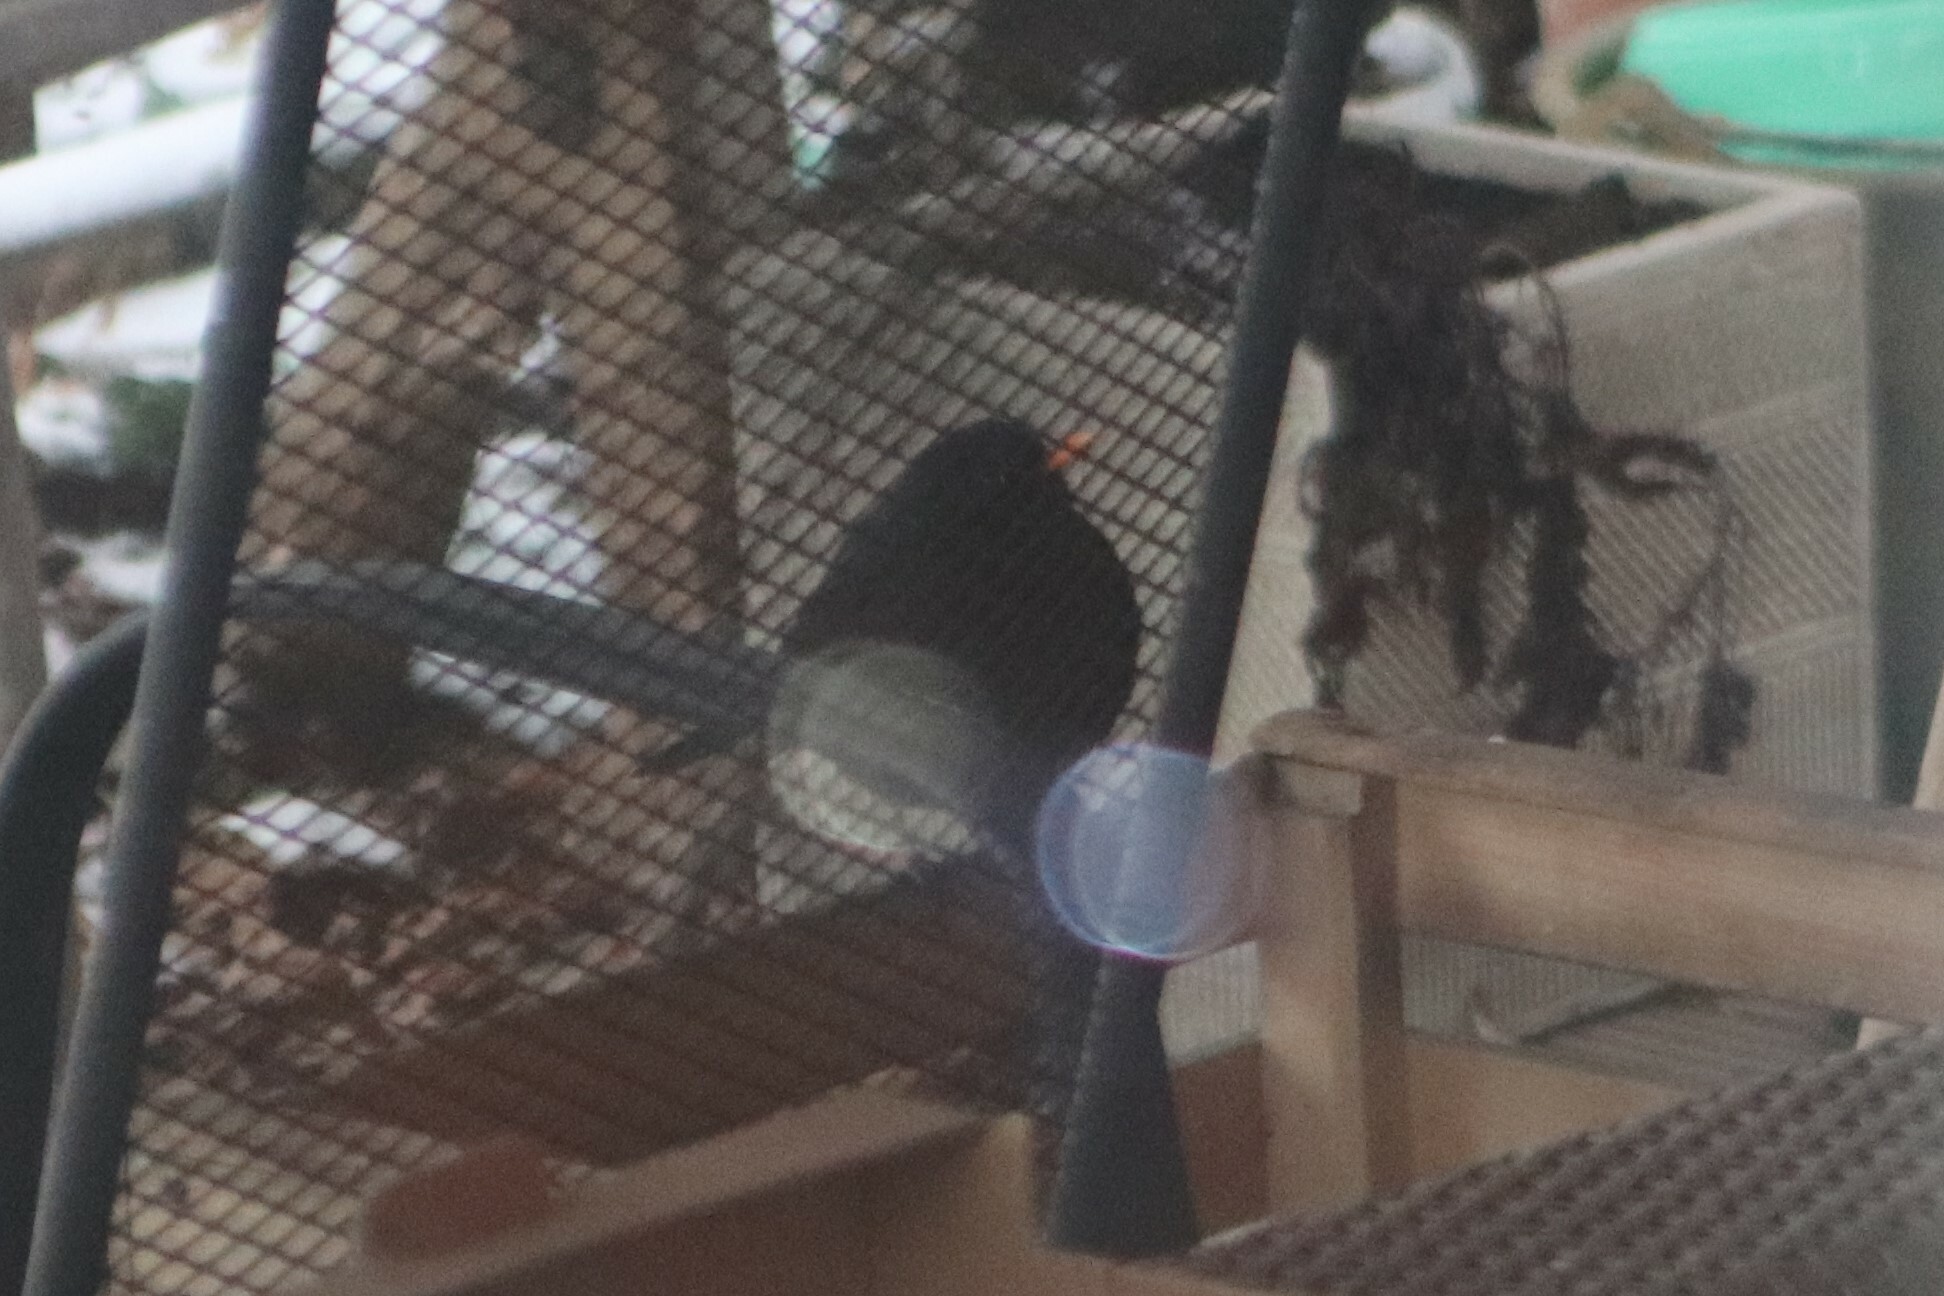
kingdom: Animalia
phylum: Chordata
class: Aves
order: Passeriformes
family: Turdidae
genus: Turdus
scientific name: Turdus merula
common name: Common blackbird
